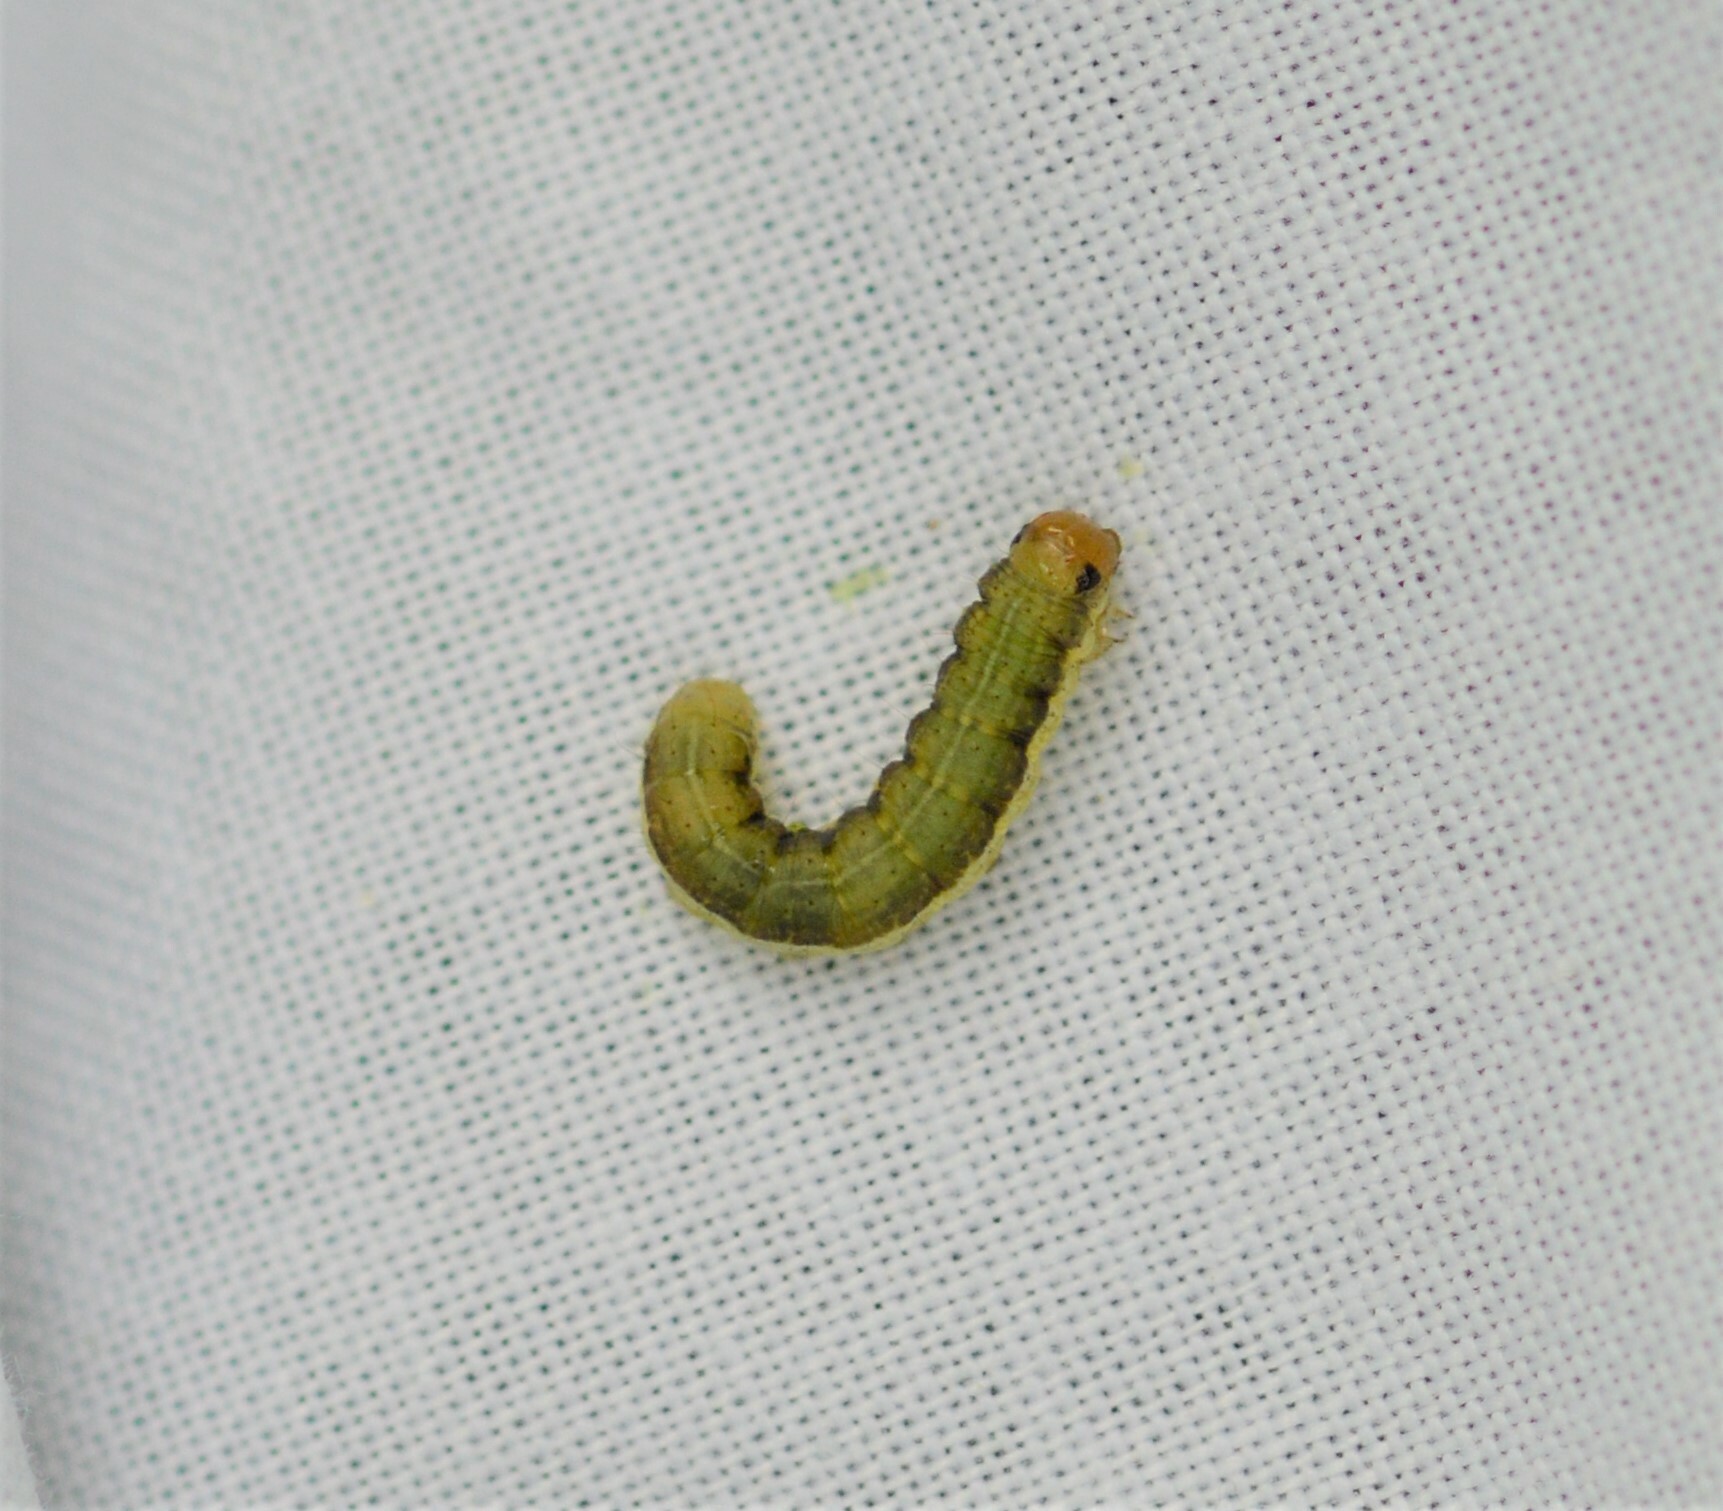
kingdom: Animalia
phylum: Arthropoda
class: Insecta
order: Lepidoptera
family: Noctuidae
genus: Loscopia
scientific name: Loscopia scolopacina
